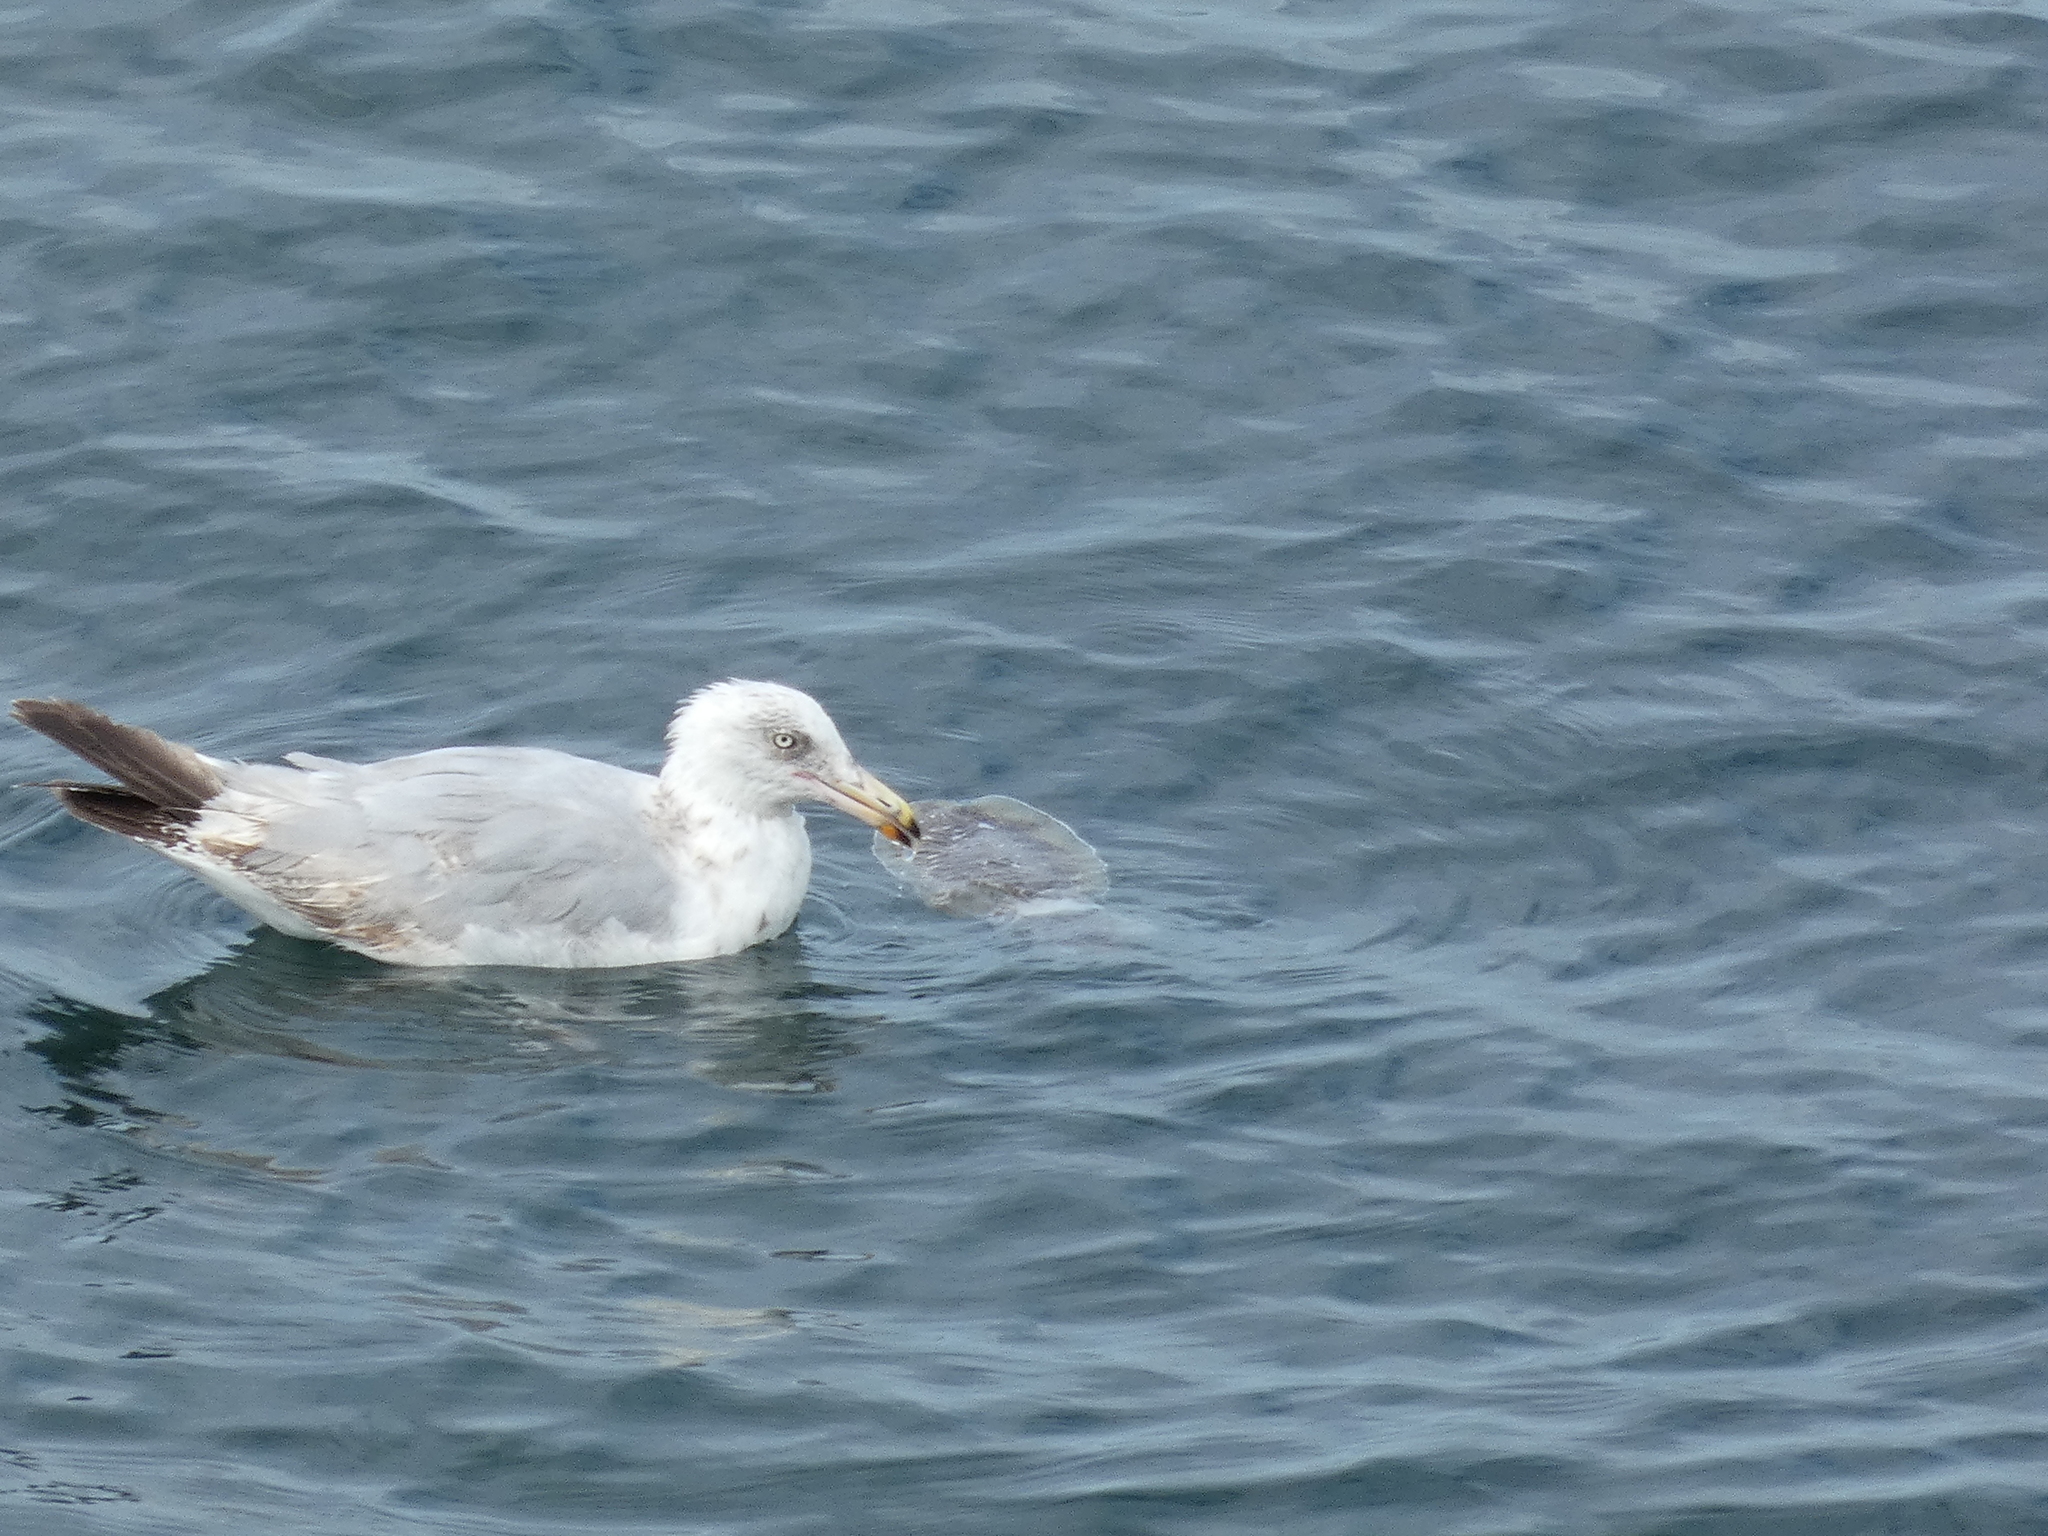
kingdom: Animalia
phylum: Chordata
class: Aves
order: Charadriiformes
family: Laridae
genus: Larus
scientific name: Larus argentatus
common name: Herring gull
